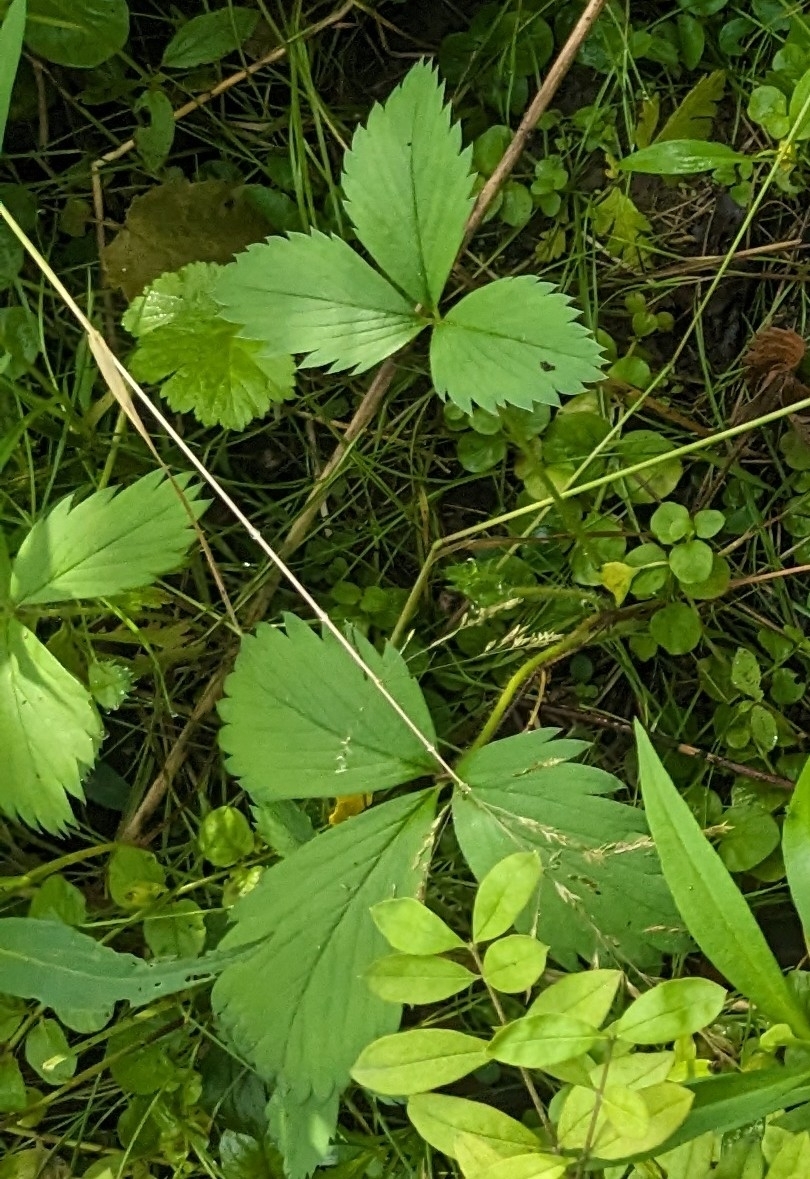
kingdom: Plantae
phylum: Tracheophyta
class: Magnoliopsida
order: Rosales
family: Rosaceae
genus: Fragaria
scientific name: Fragaria virginiana
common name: Thickleaved wild strawberry
